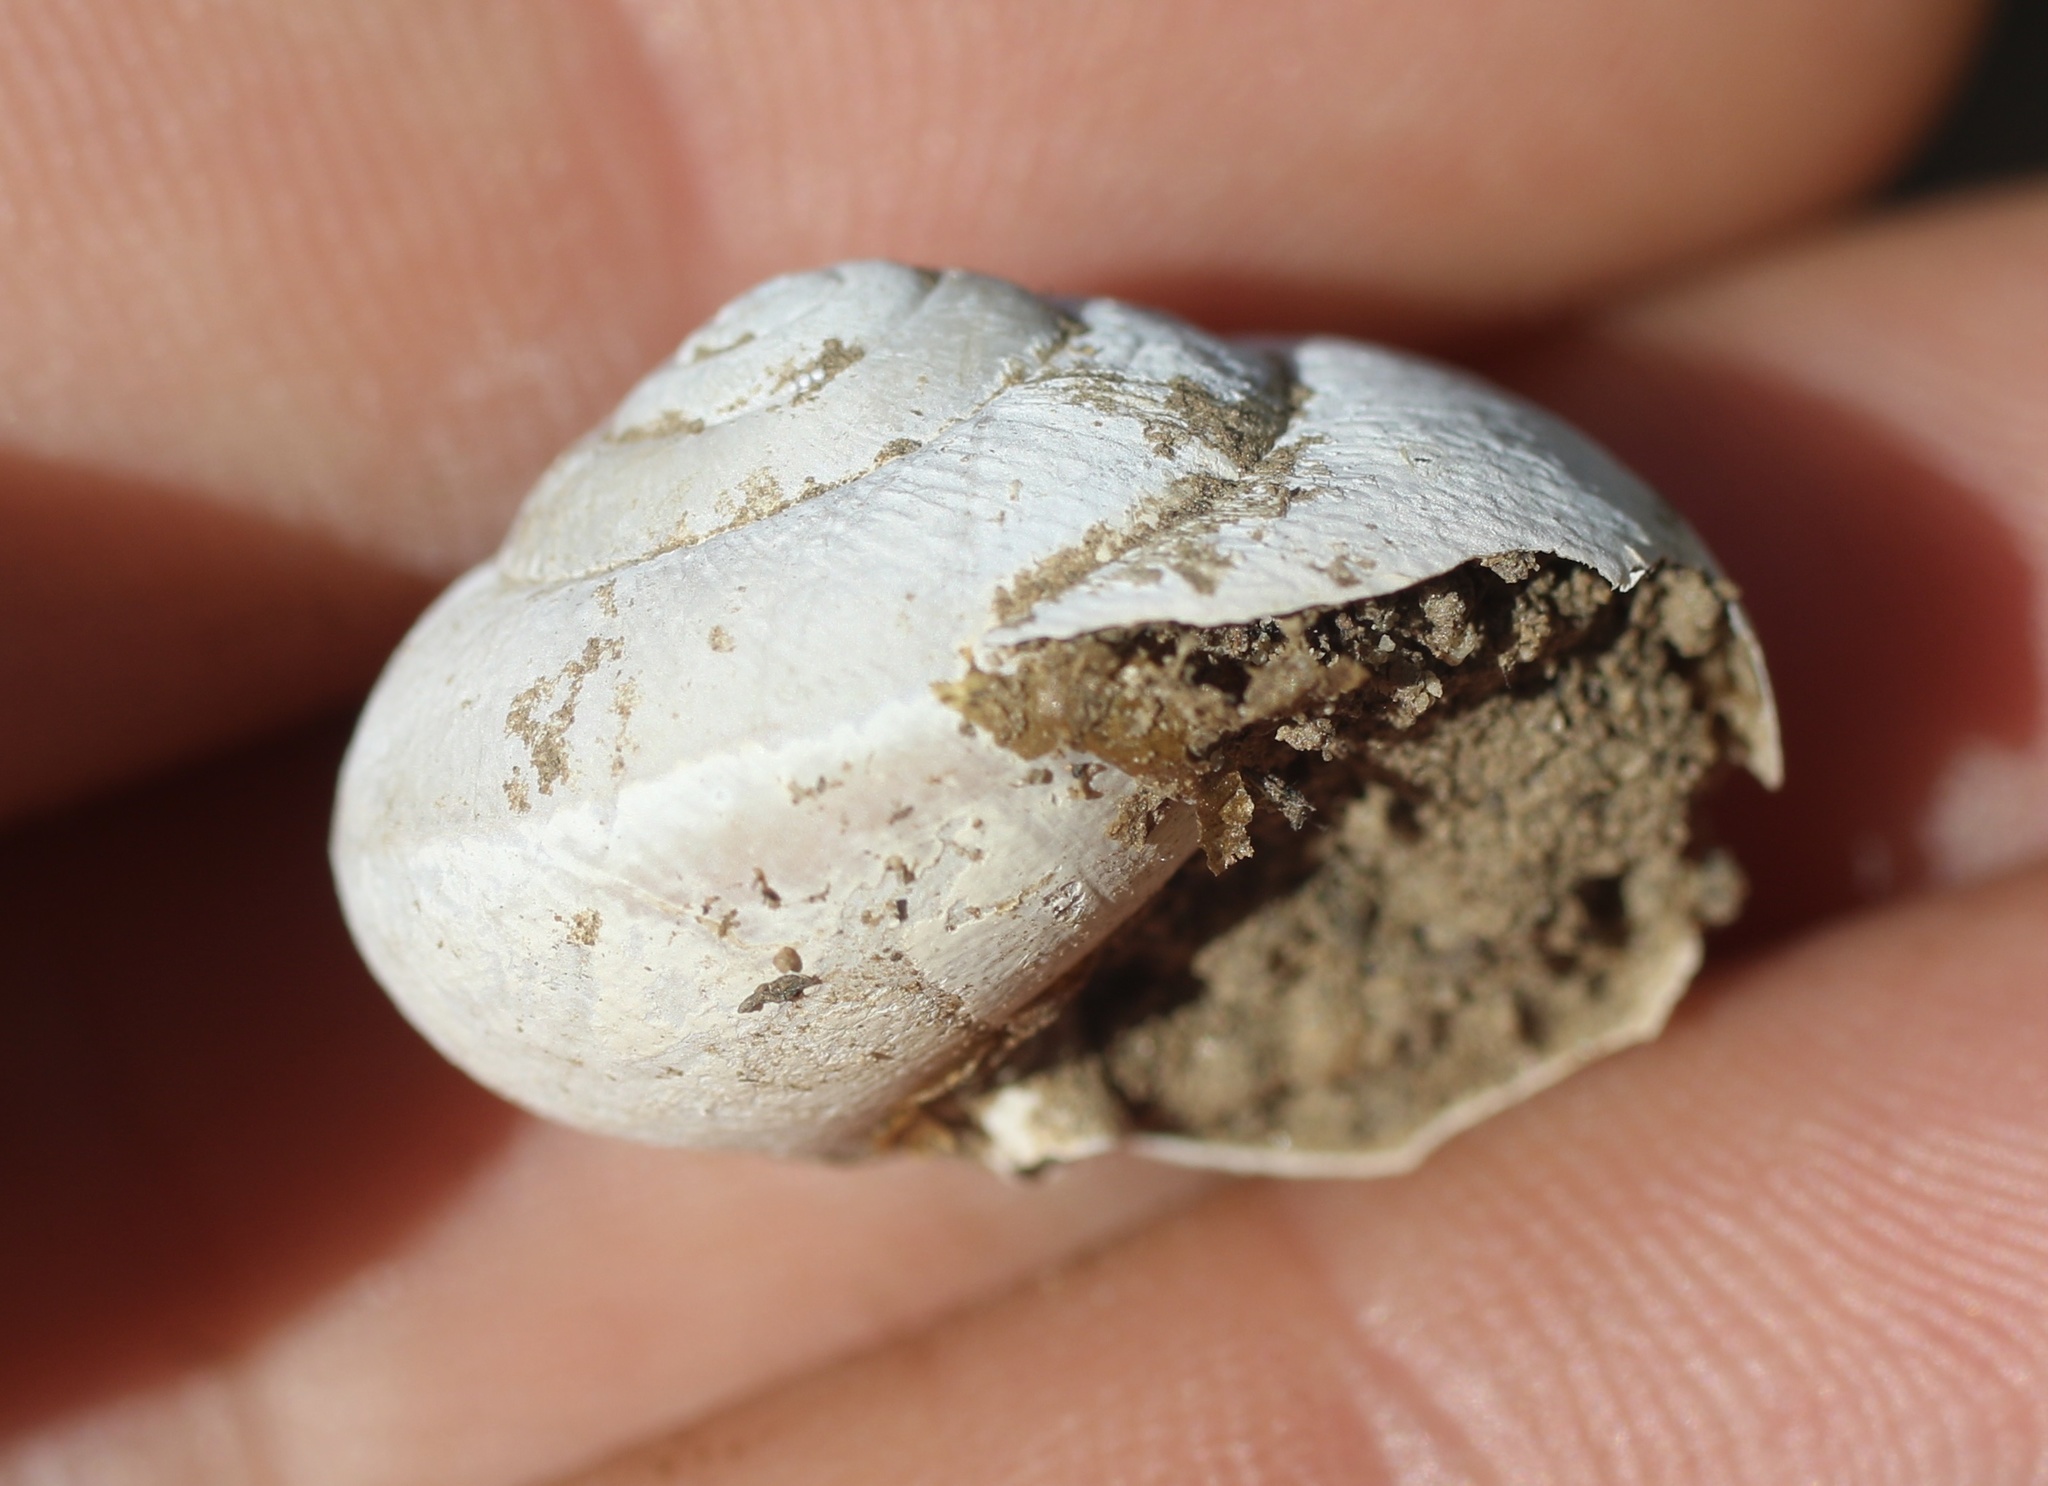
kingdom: Animalia
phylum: Mollusca
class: Gastropoda
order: Stylommatophora
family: Xanthonychidae
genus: Helminthoglypta
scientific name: Helminthoglypta tudiculata
